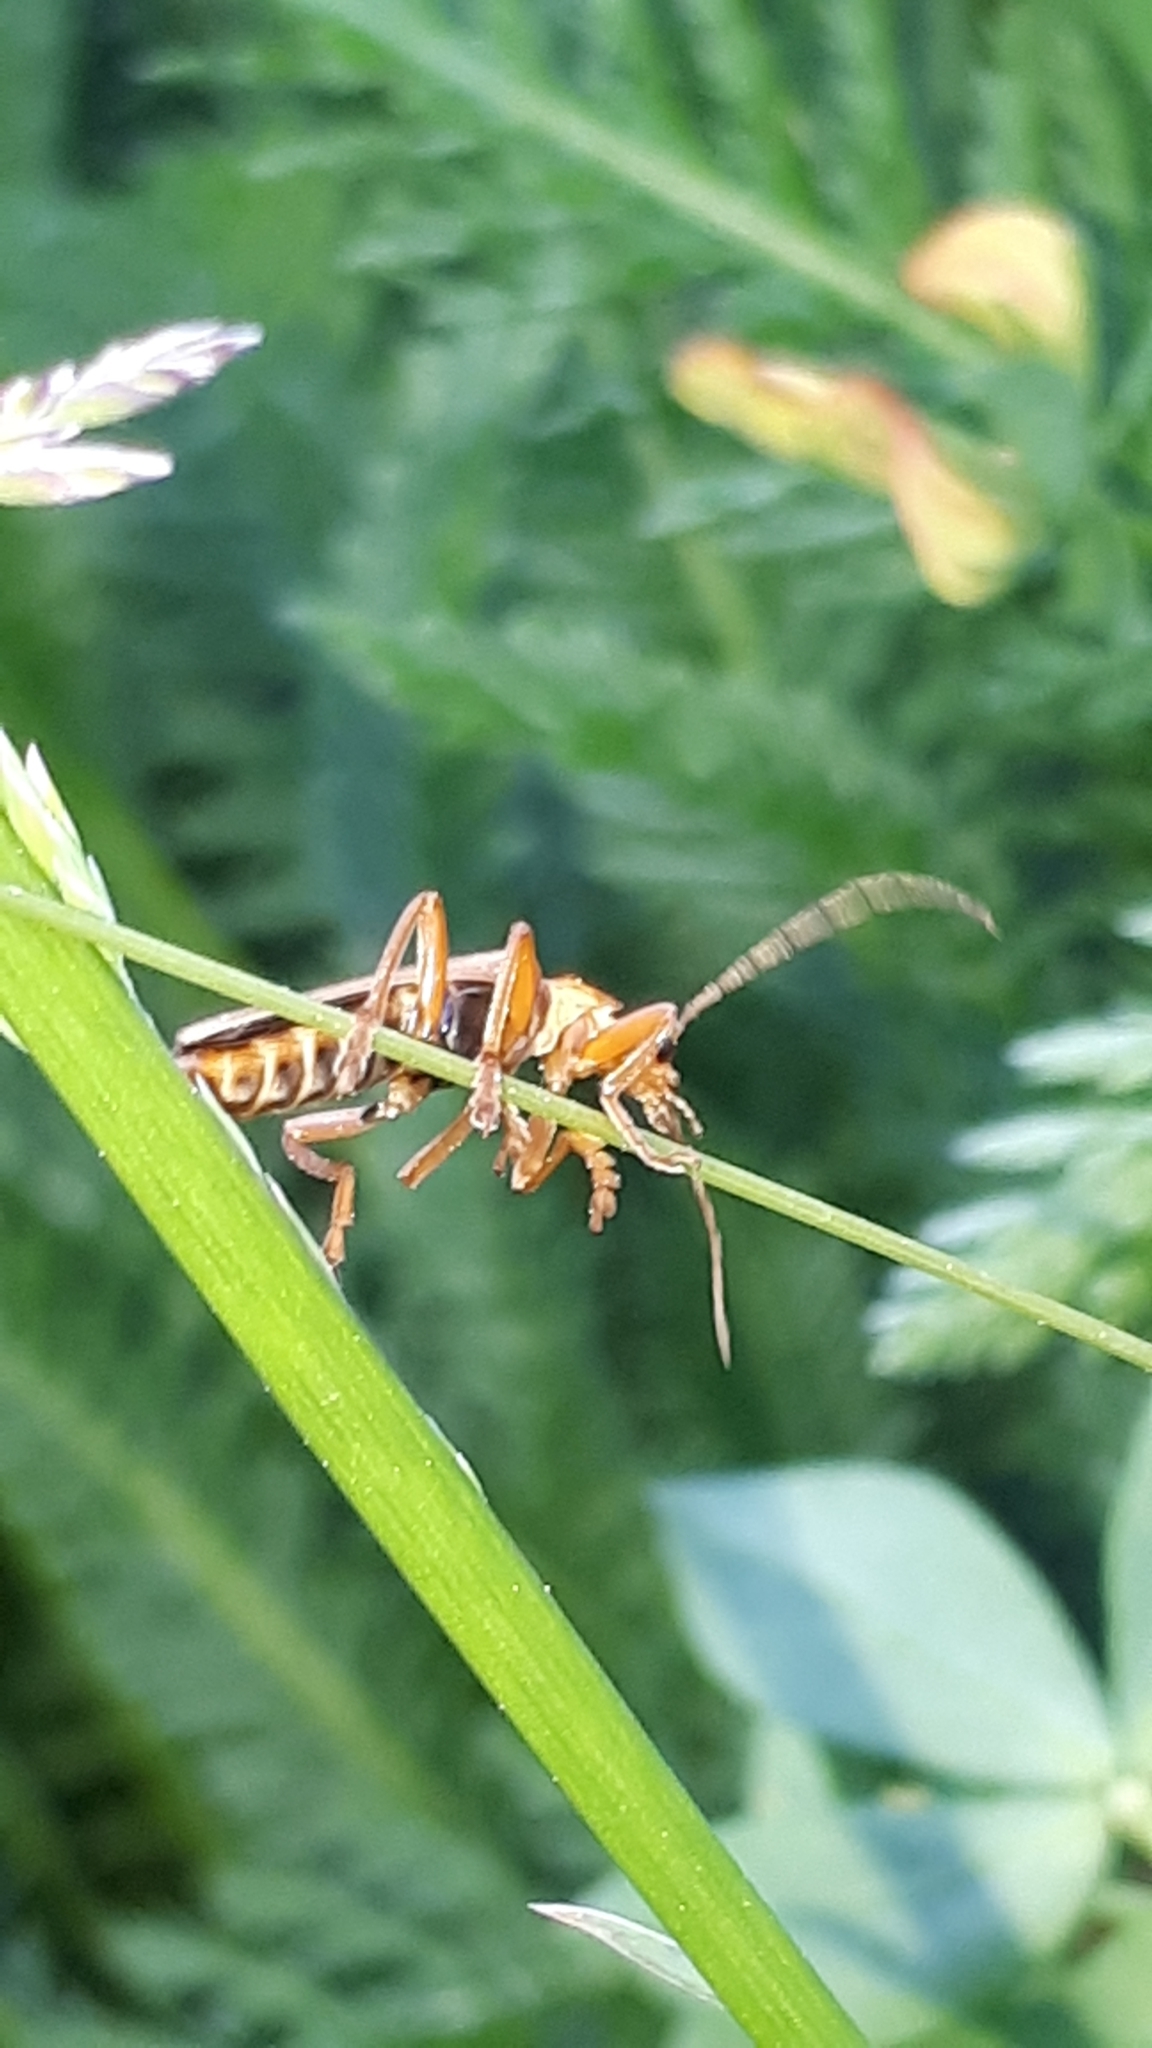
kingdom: Animalia
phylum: Arthropoda
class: Insecta
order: Coleoptera
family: Cantharidae
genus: Cantharis
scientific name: Cantharis rufa
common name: Red-spotted soldier beetle
